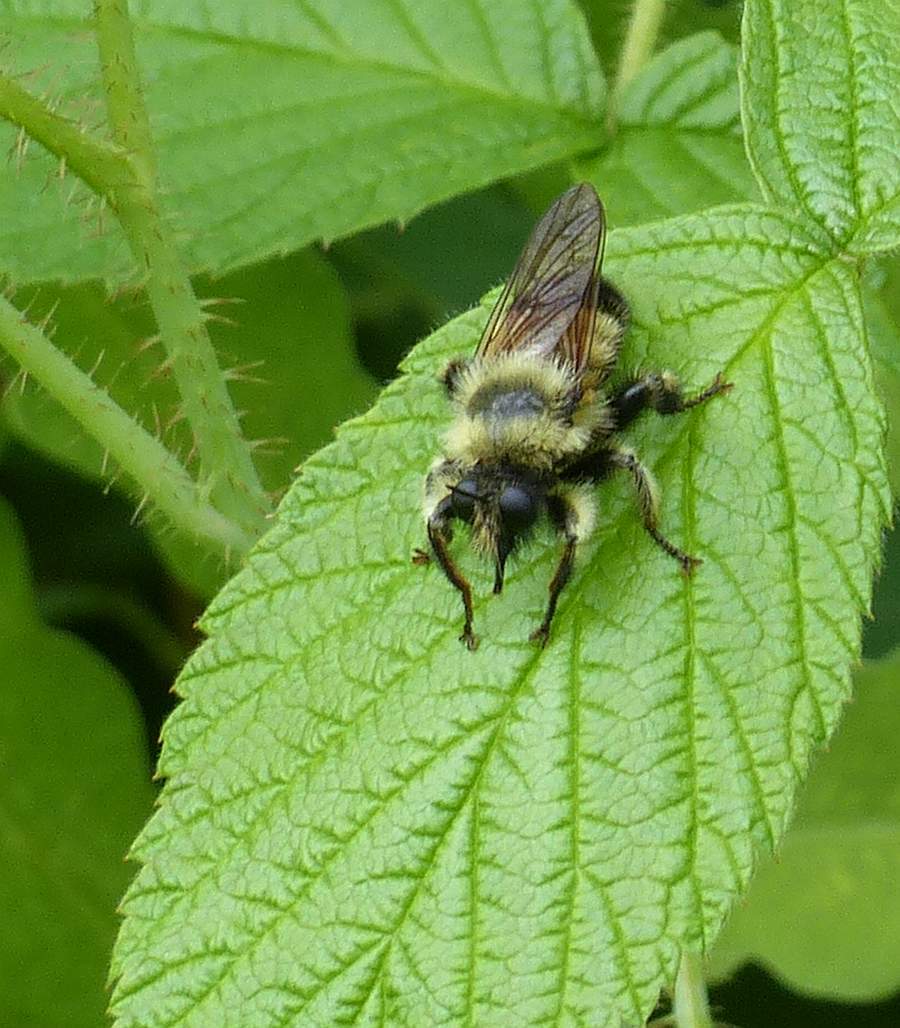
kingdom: Animalia
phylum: Arthropoda
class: Insecta
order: Diptera
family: Asilidae
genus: Laphria
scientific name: Laphria sacrator
